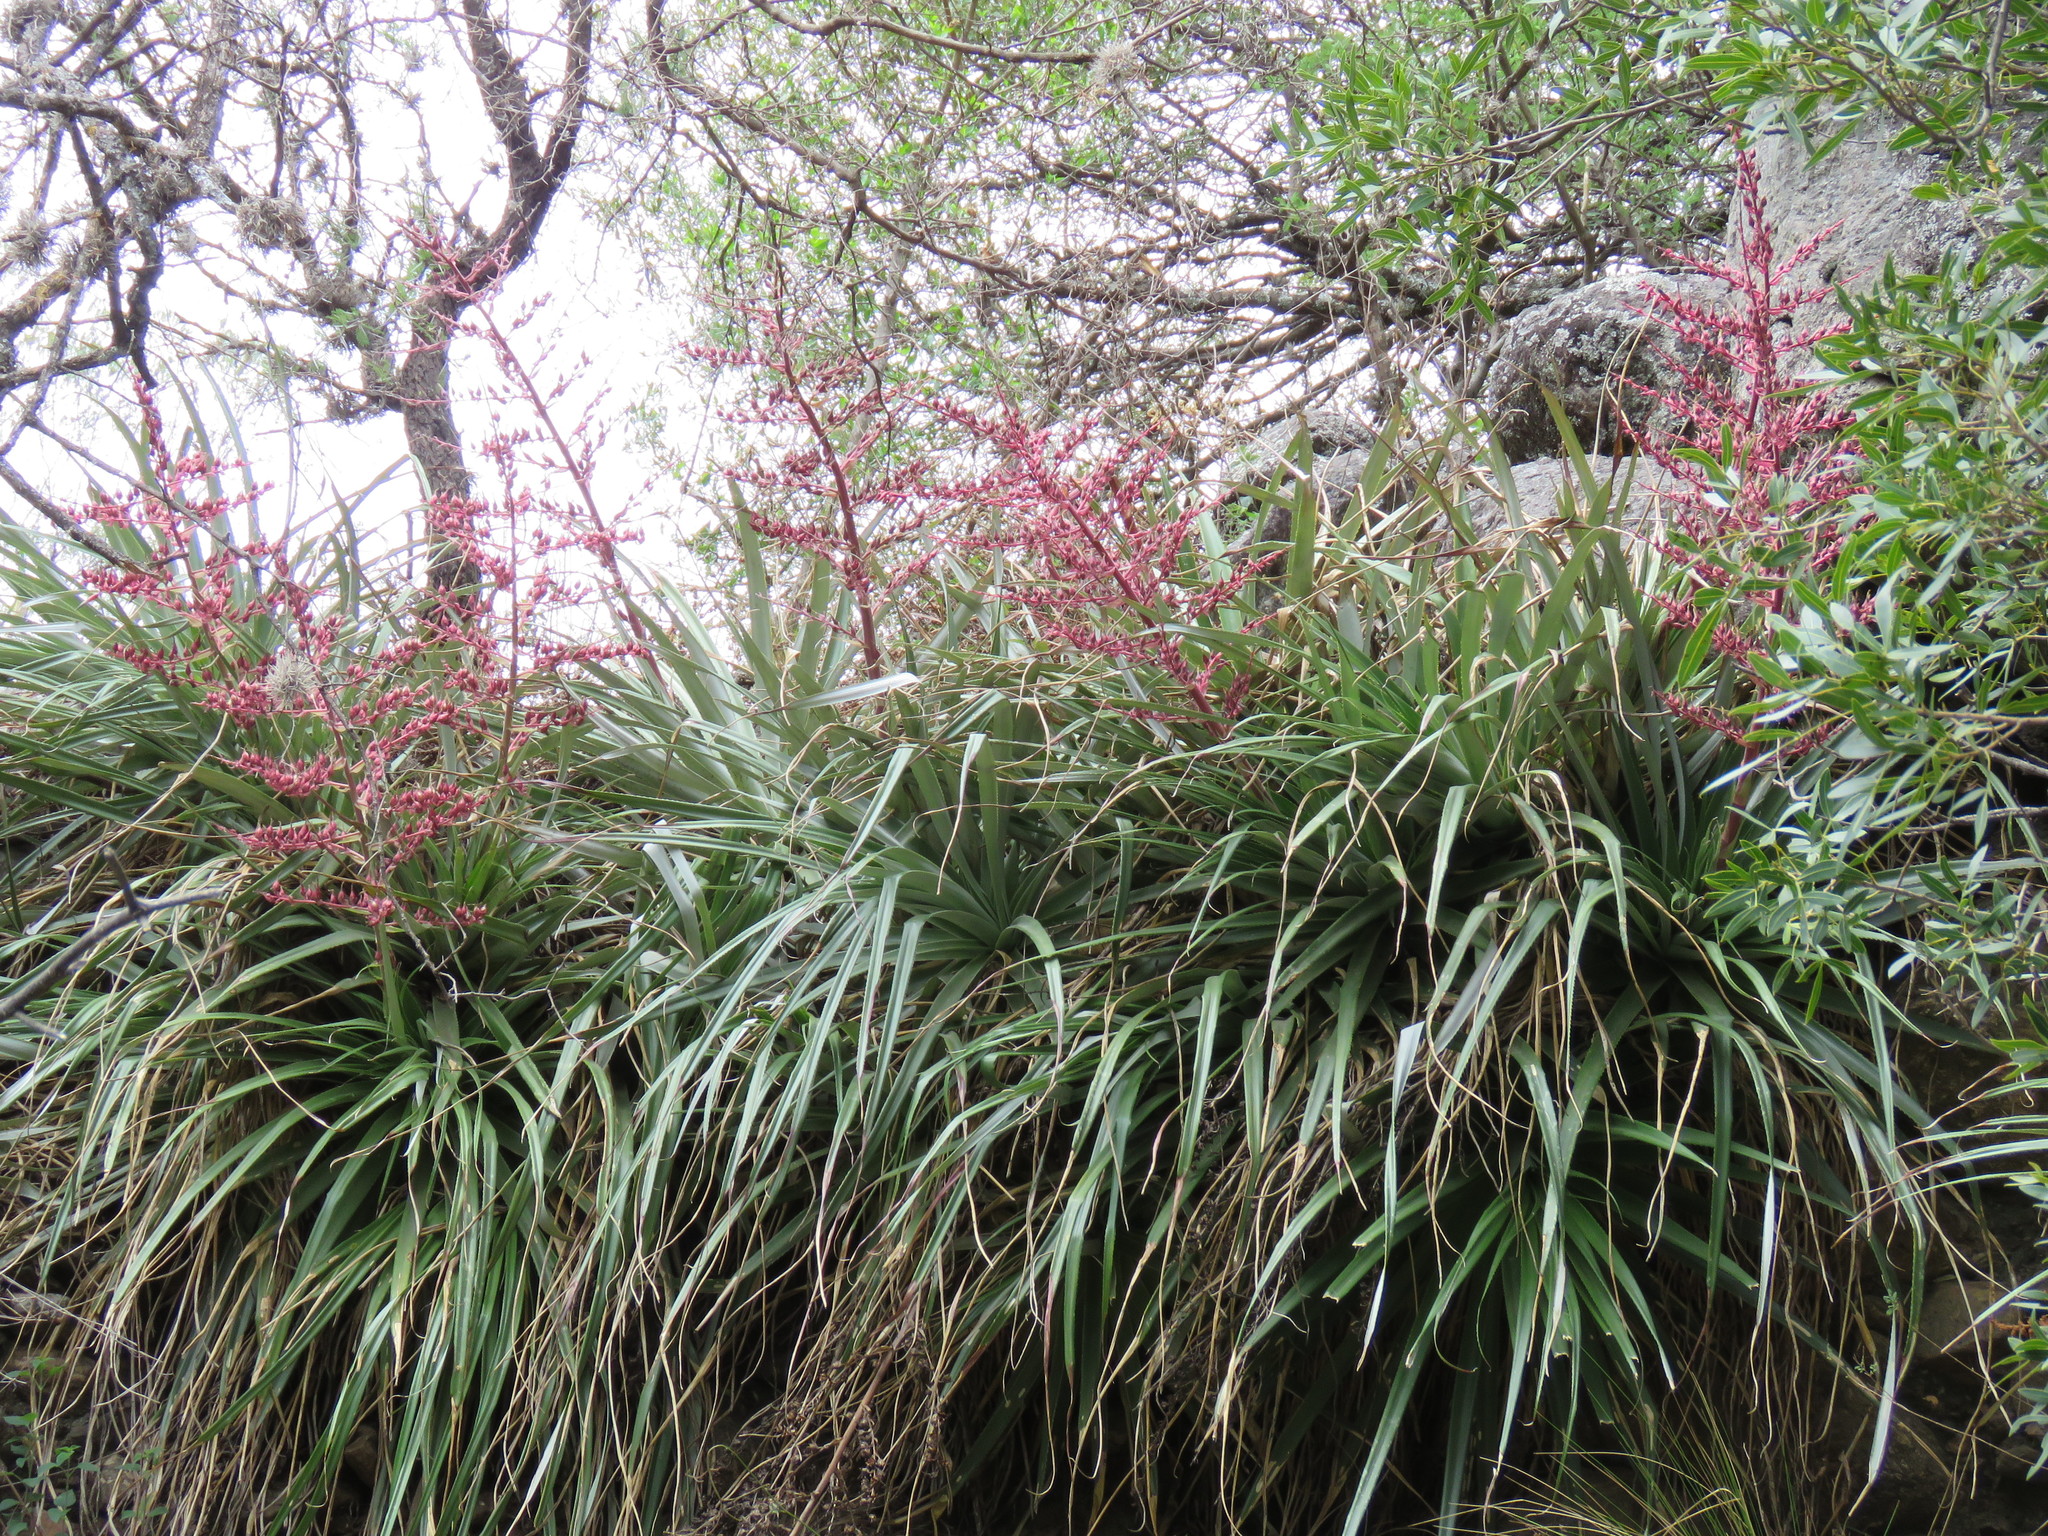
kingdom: Plantae
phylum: Tracheophyta
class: Liliopsida
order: Poales
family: Bromeliaceae
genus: Puya
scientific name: Puya spathacea
